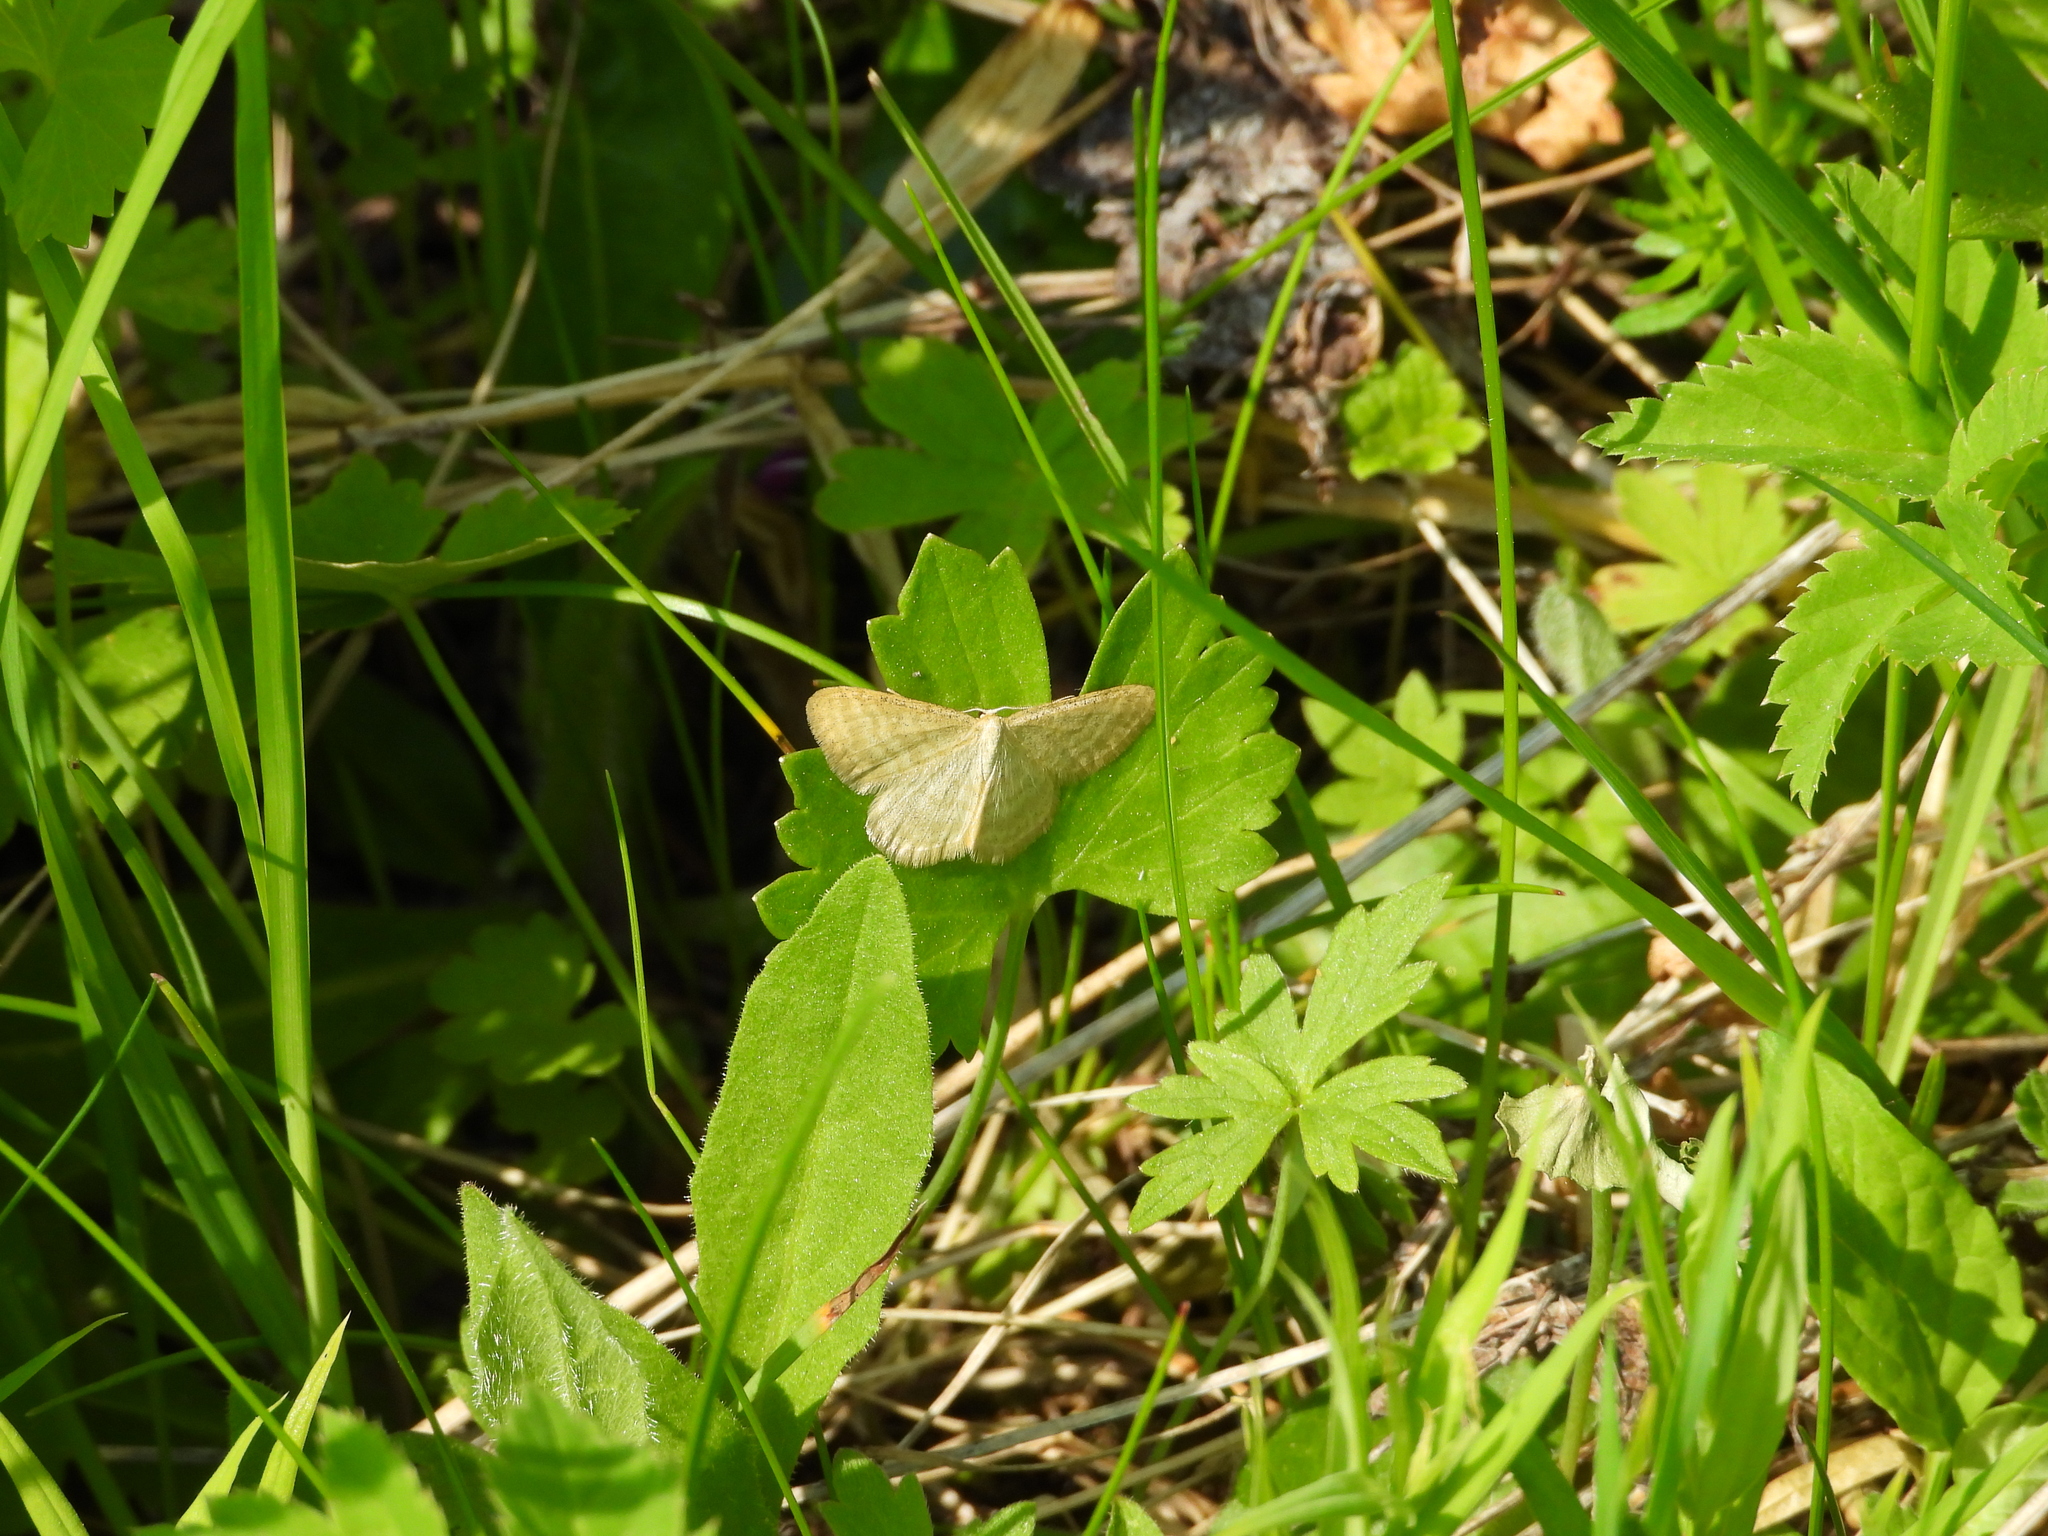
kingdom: Animalia
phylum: Arthropoda
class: Insecta
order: Lepidoptera
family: Geometridae
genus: Idaea
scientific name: Idaea pallidata
